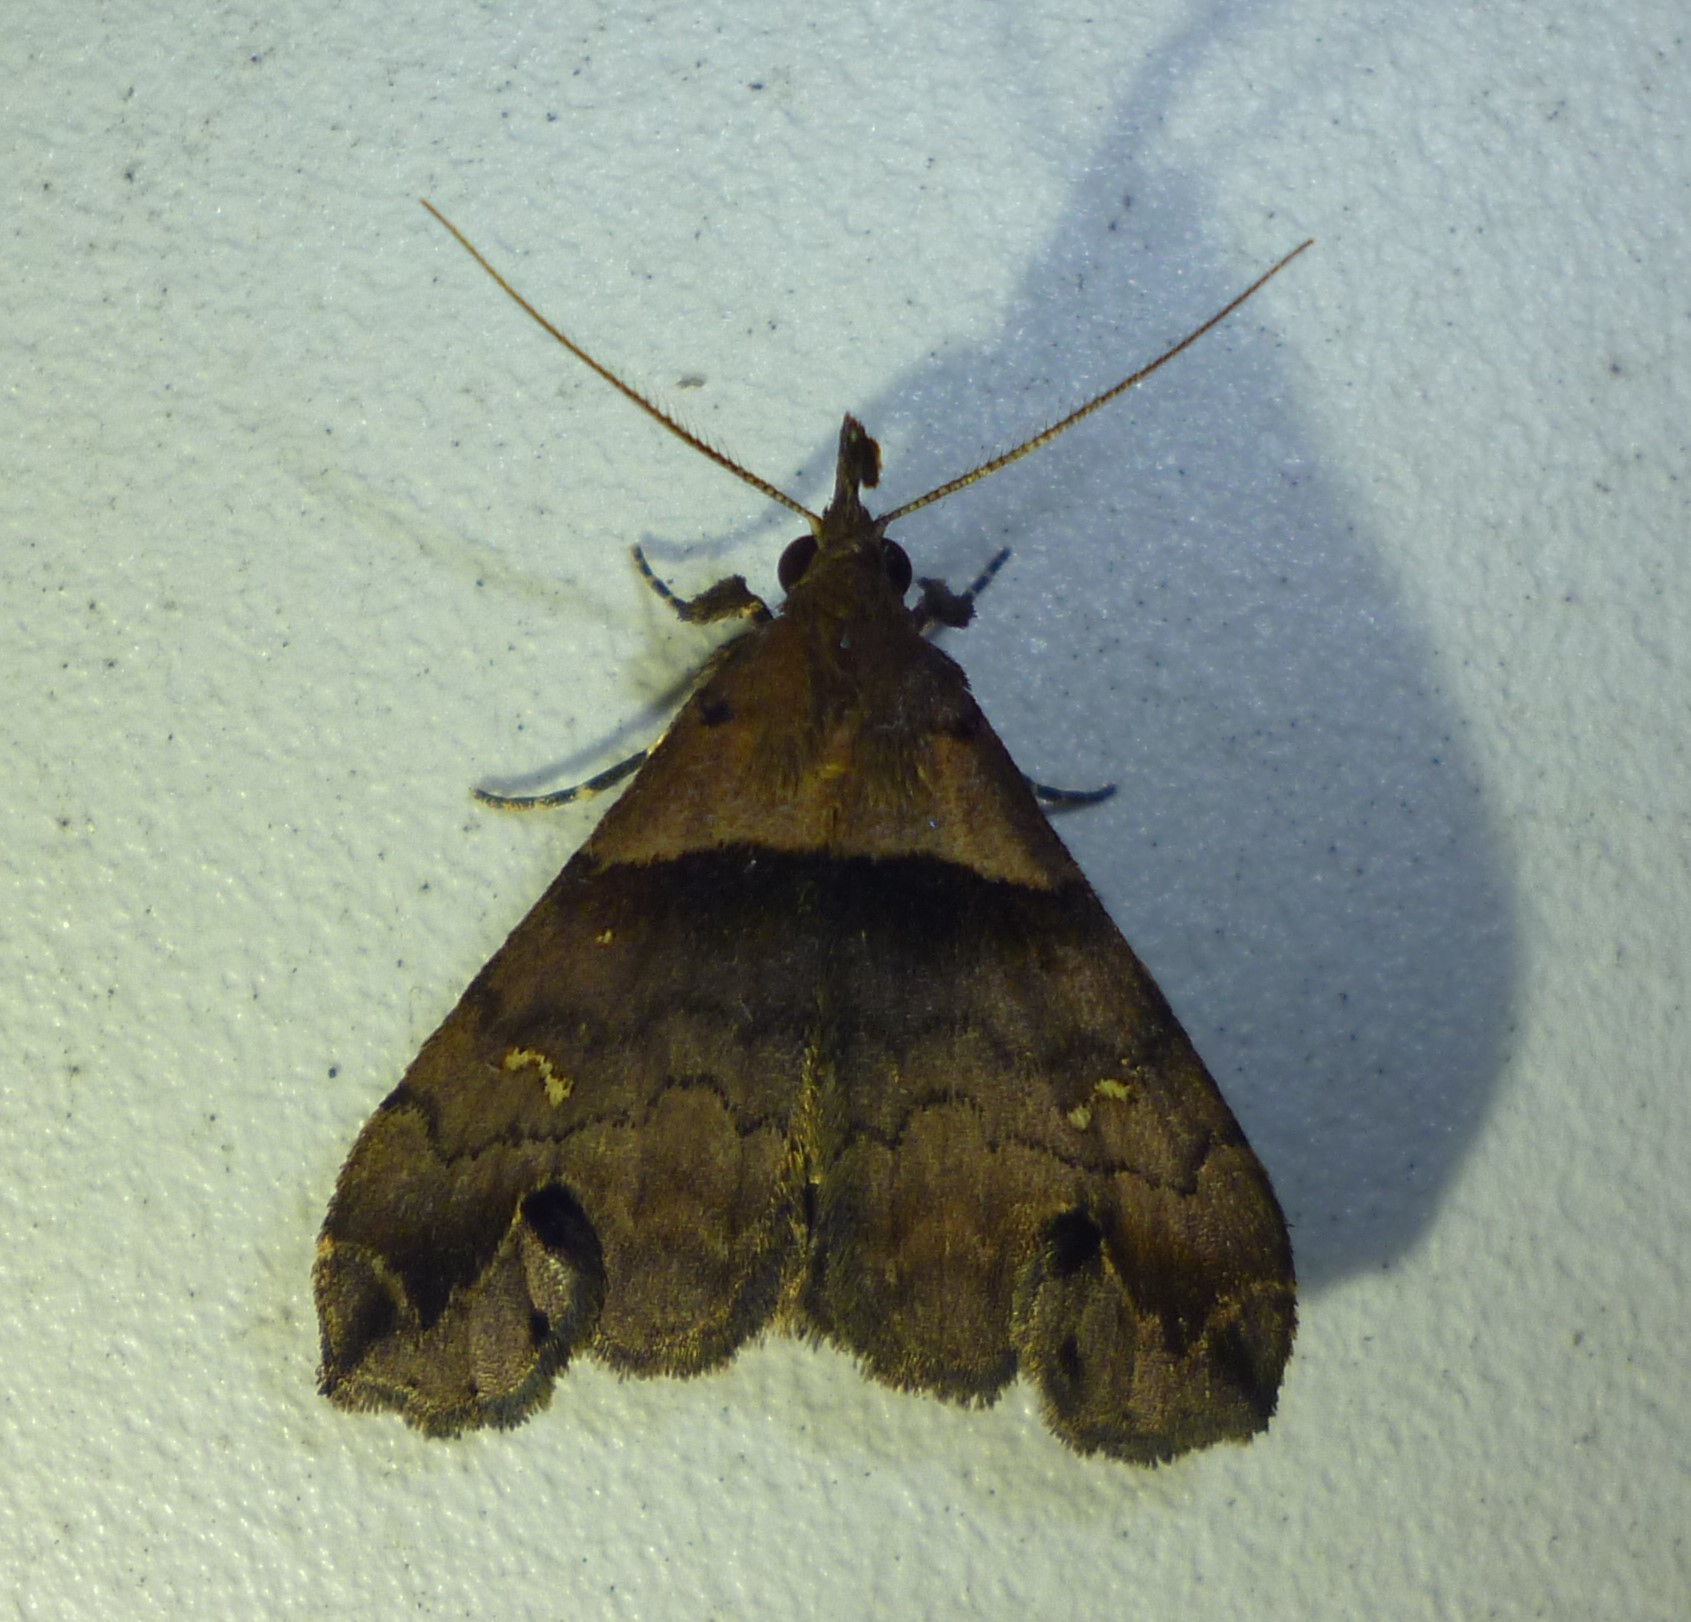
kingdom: Animalia
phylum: Arthropoda
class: Insecta
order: Lepidoptera
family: Erebidae
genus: Lascoria
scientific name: Lascoria ambigualis
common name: Ambiguous moth
